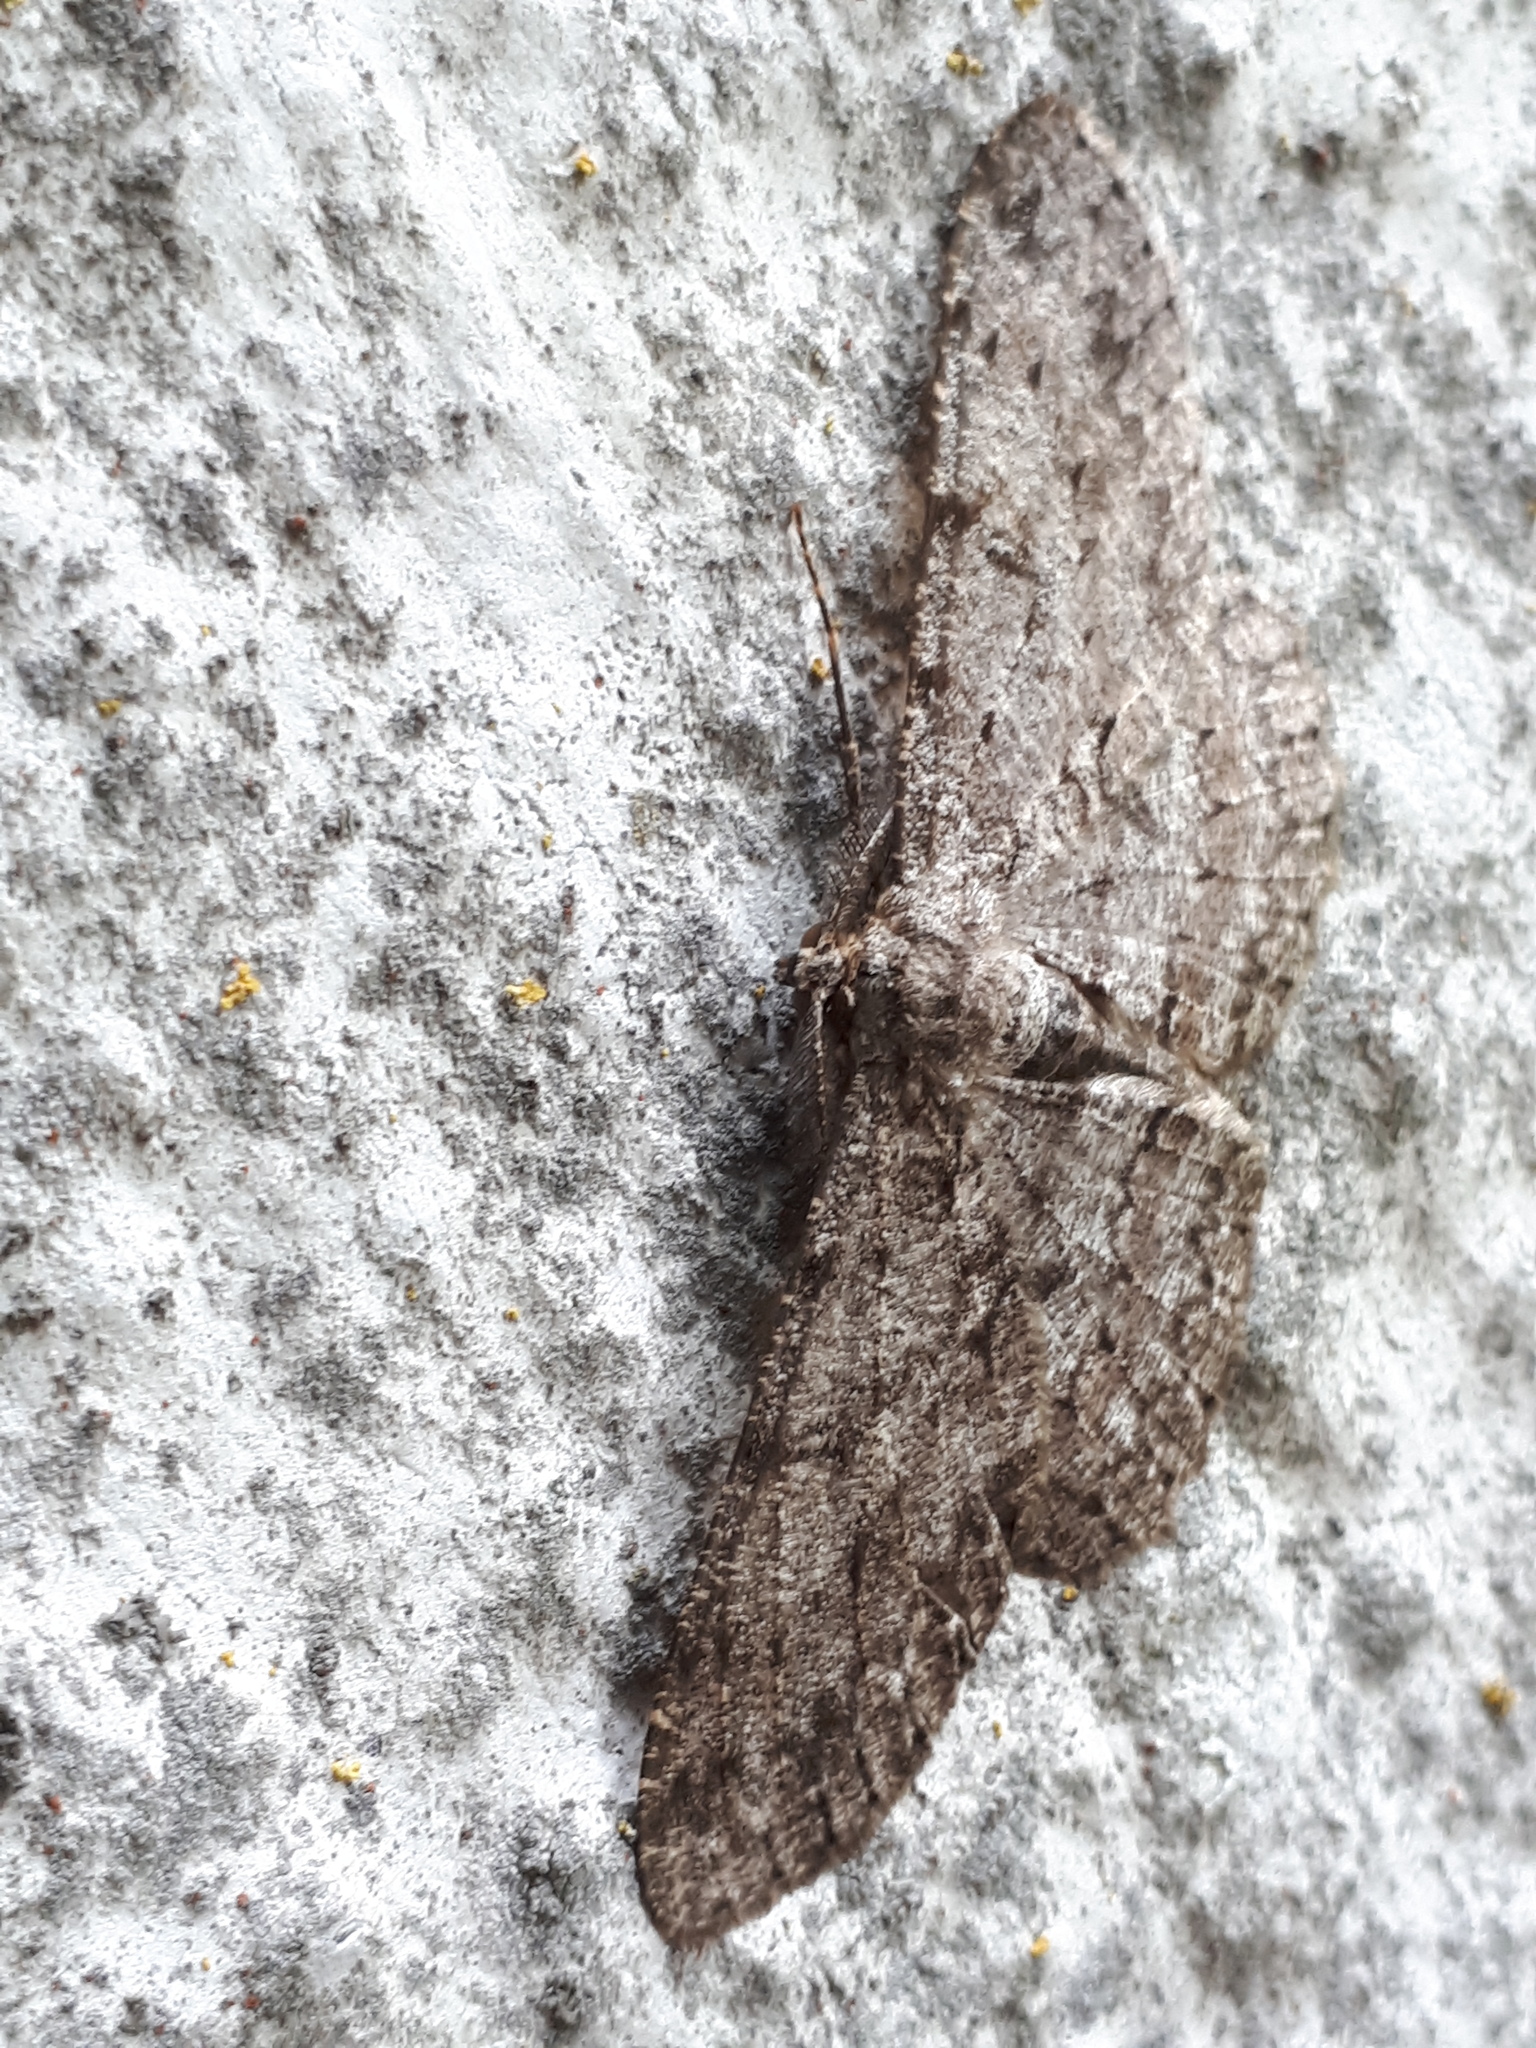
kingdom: Animalia
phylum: Arthropoda
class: Insecta
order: Lepidoptera
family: Geometridae
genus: Hypomecis
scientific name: Hypomecis punctinalis
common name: Pale oak beauty
